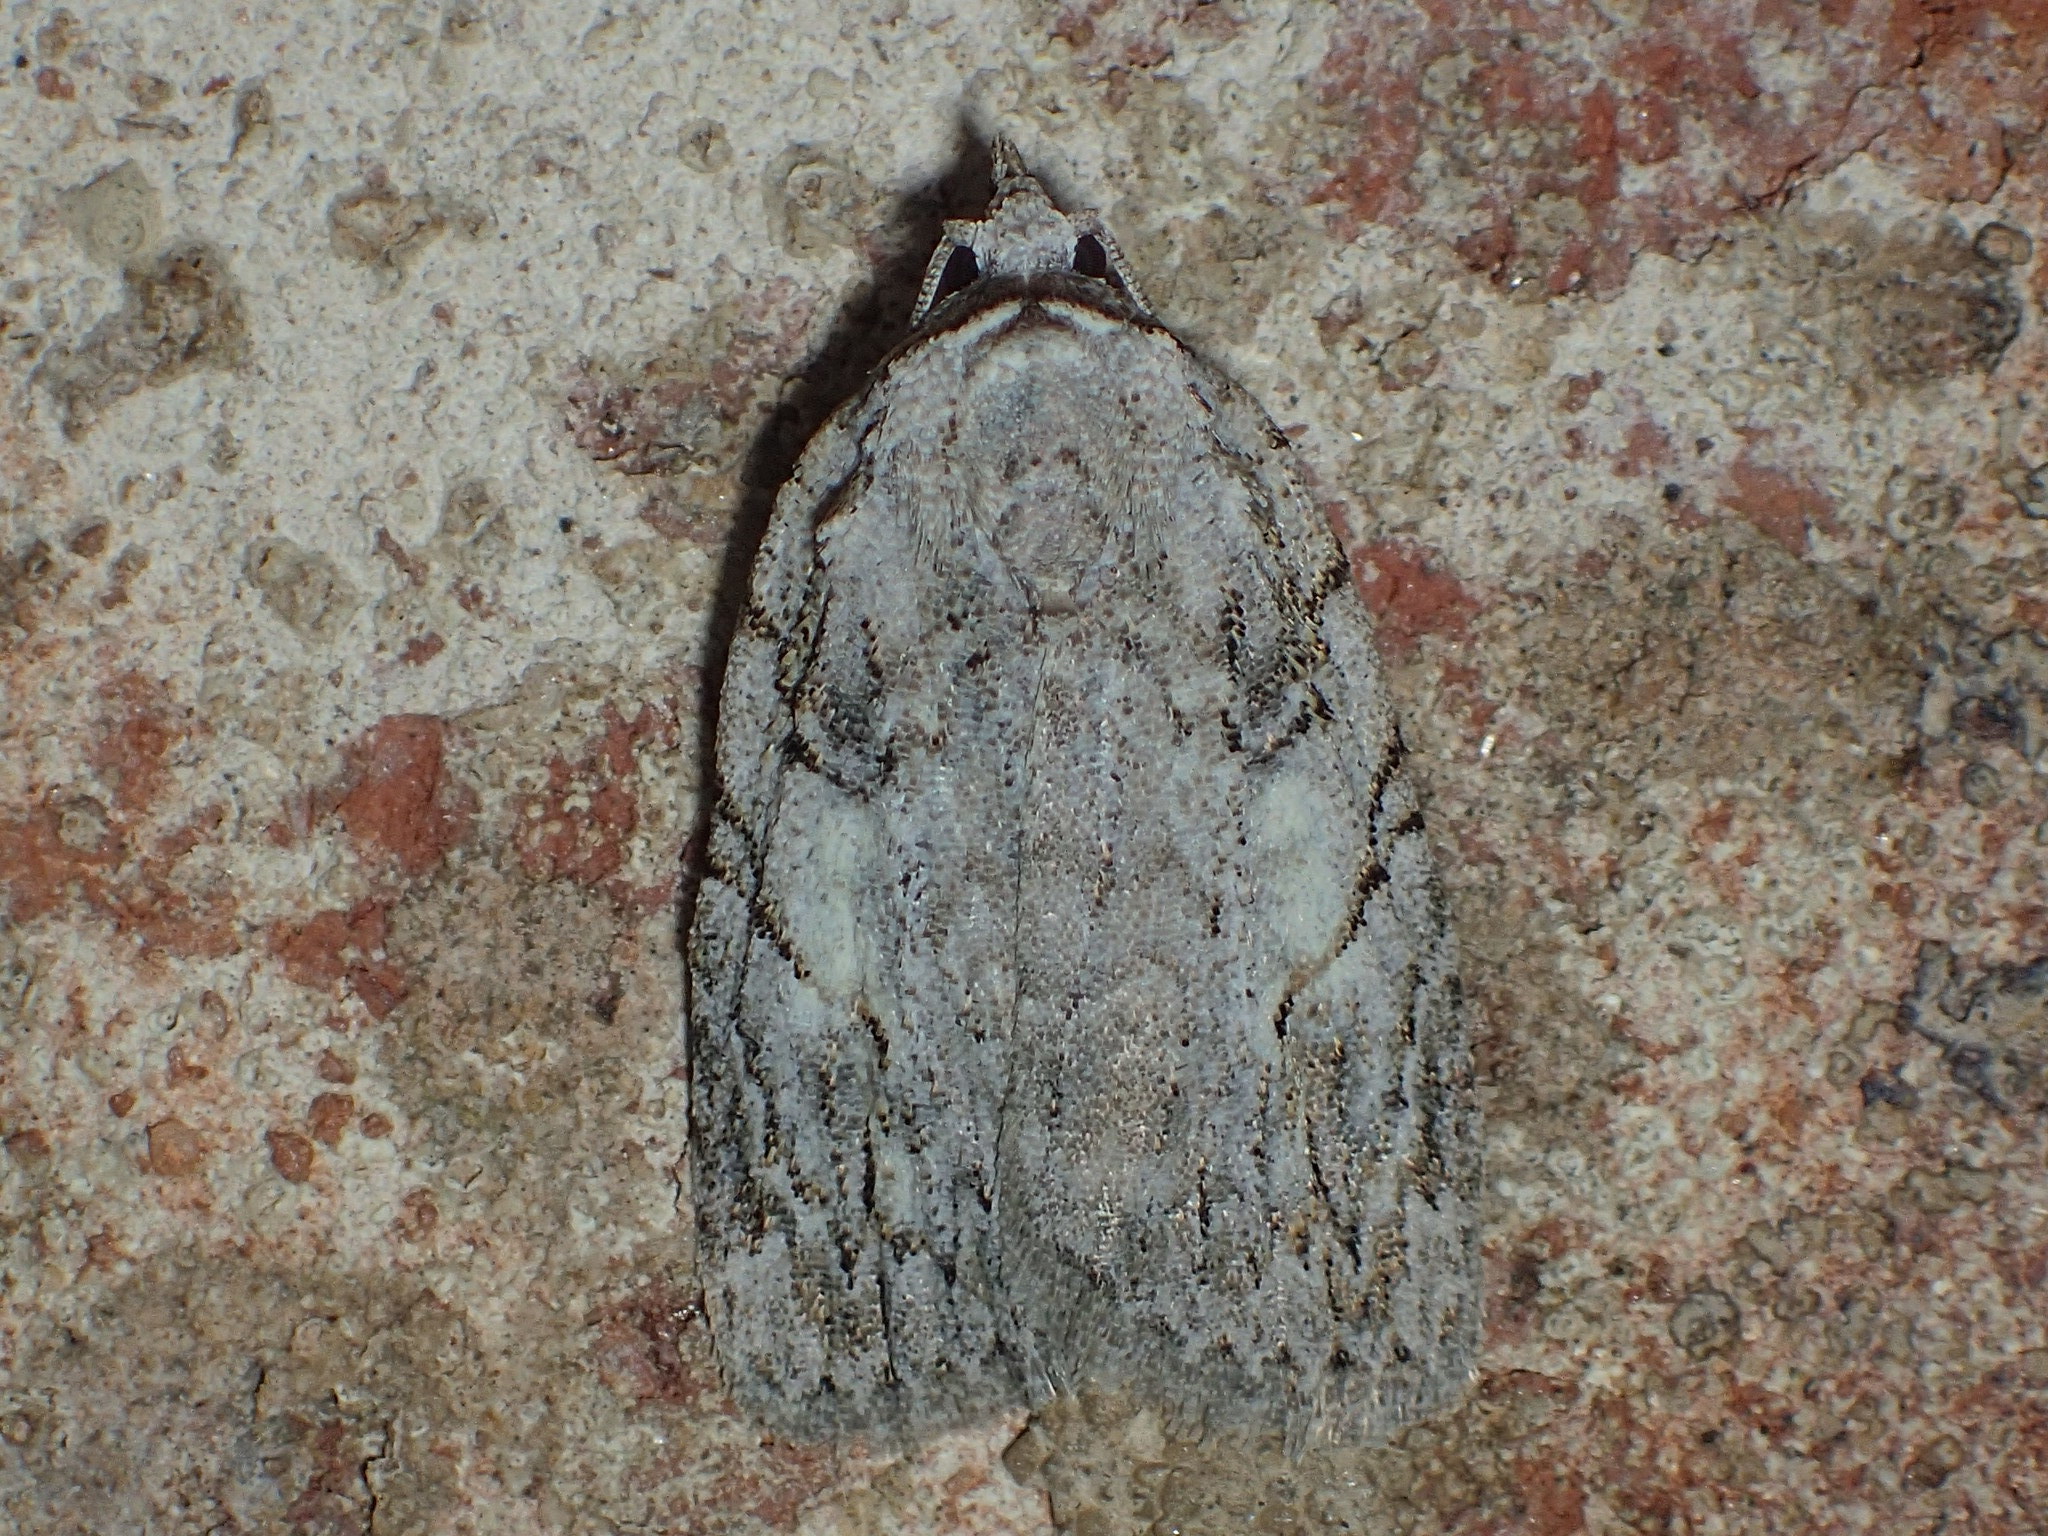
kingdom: Animalia
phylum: Arthropoda
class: Insecta
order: Lepidoptera
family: Noctuidae
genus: Balsa
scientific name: Balsa labecula
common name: White-blotched balsa moth
